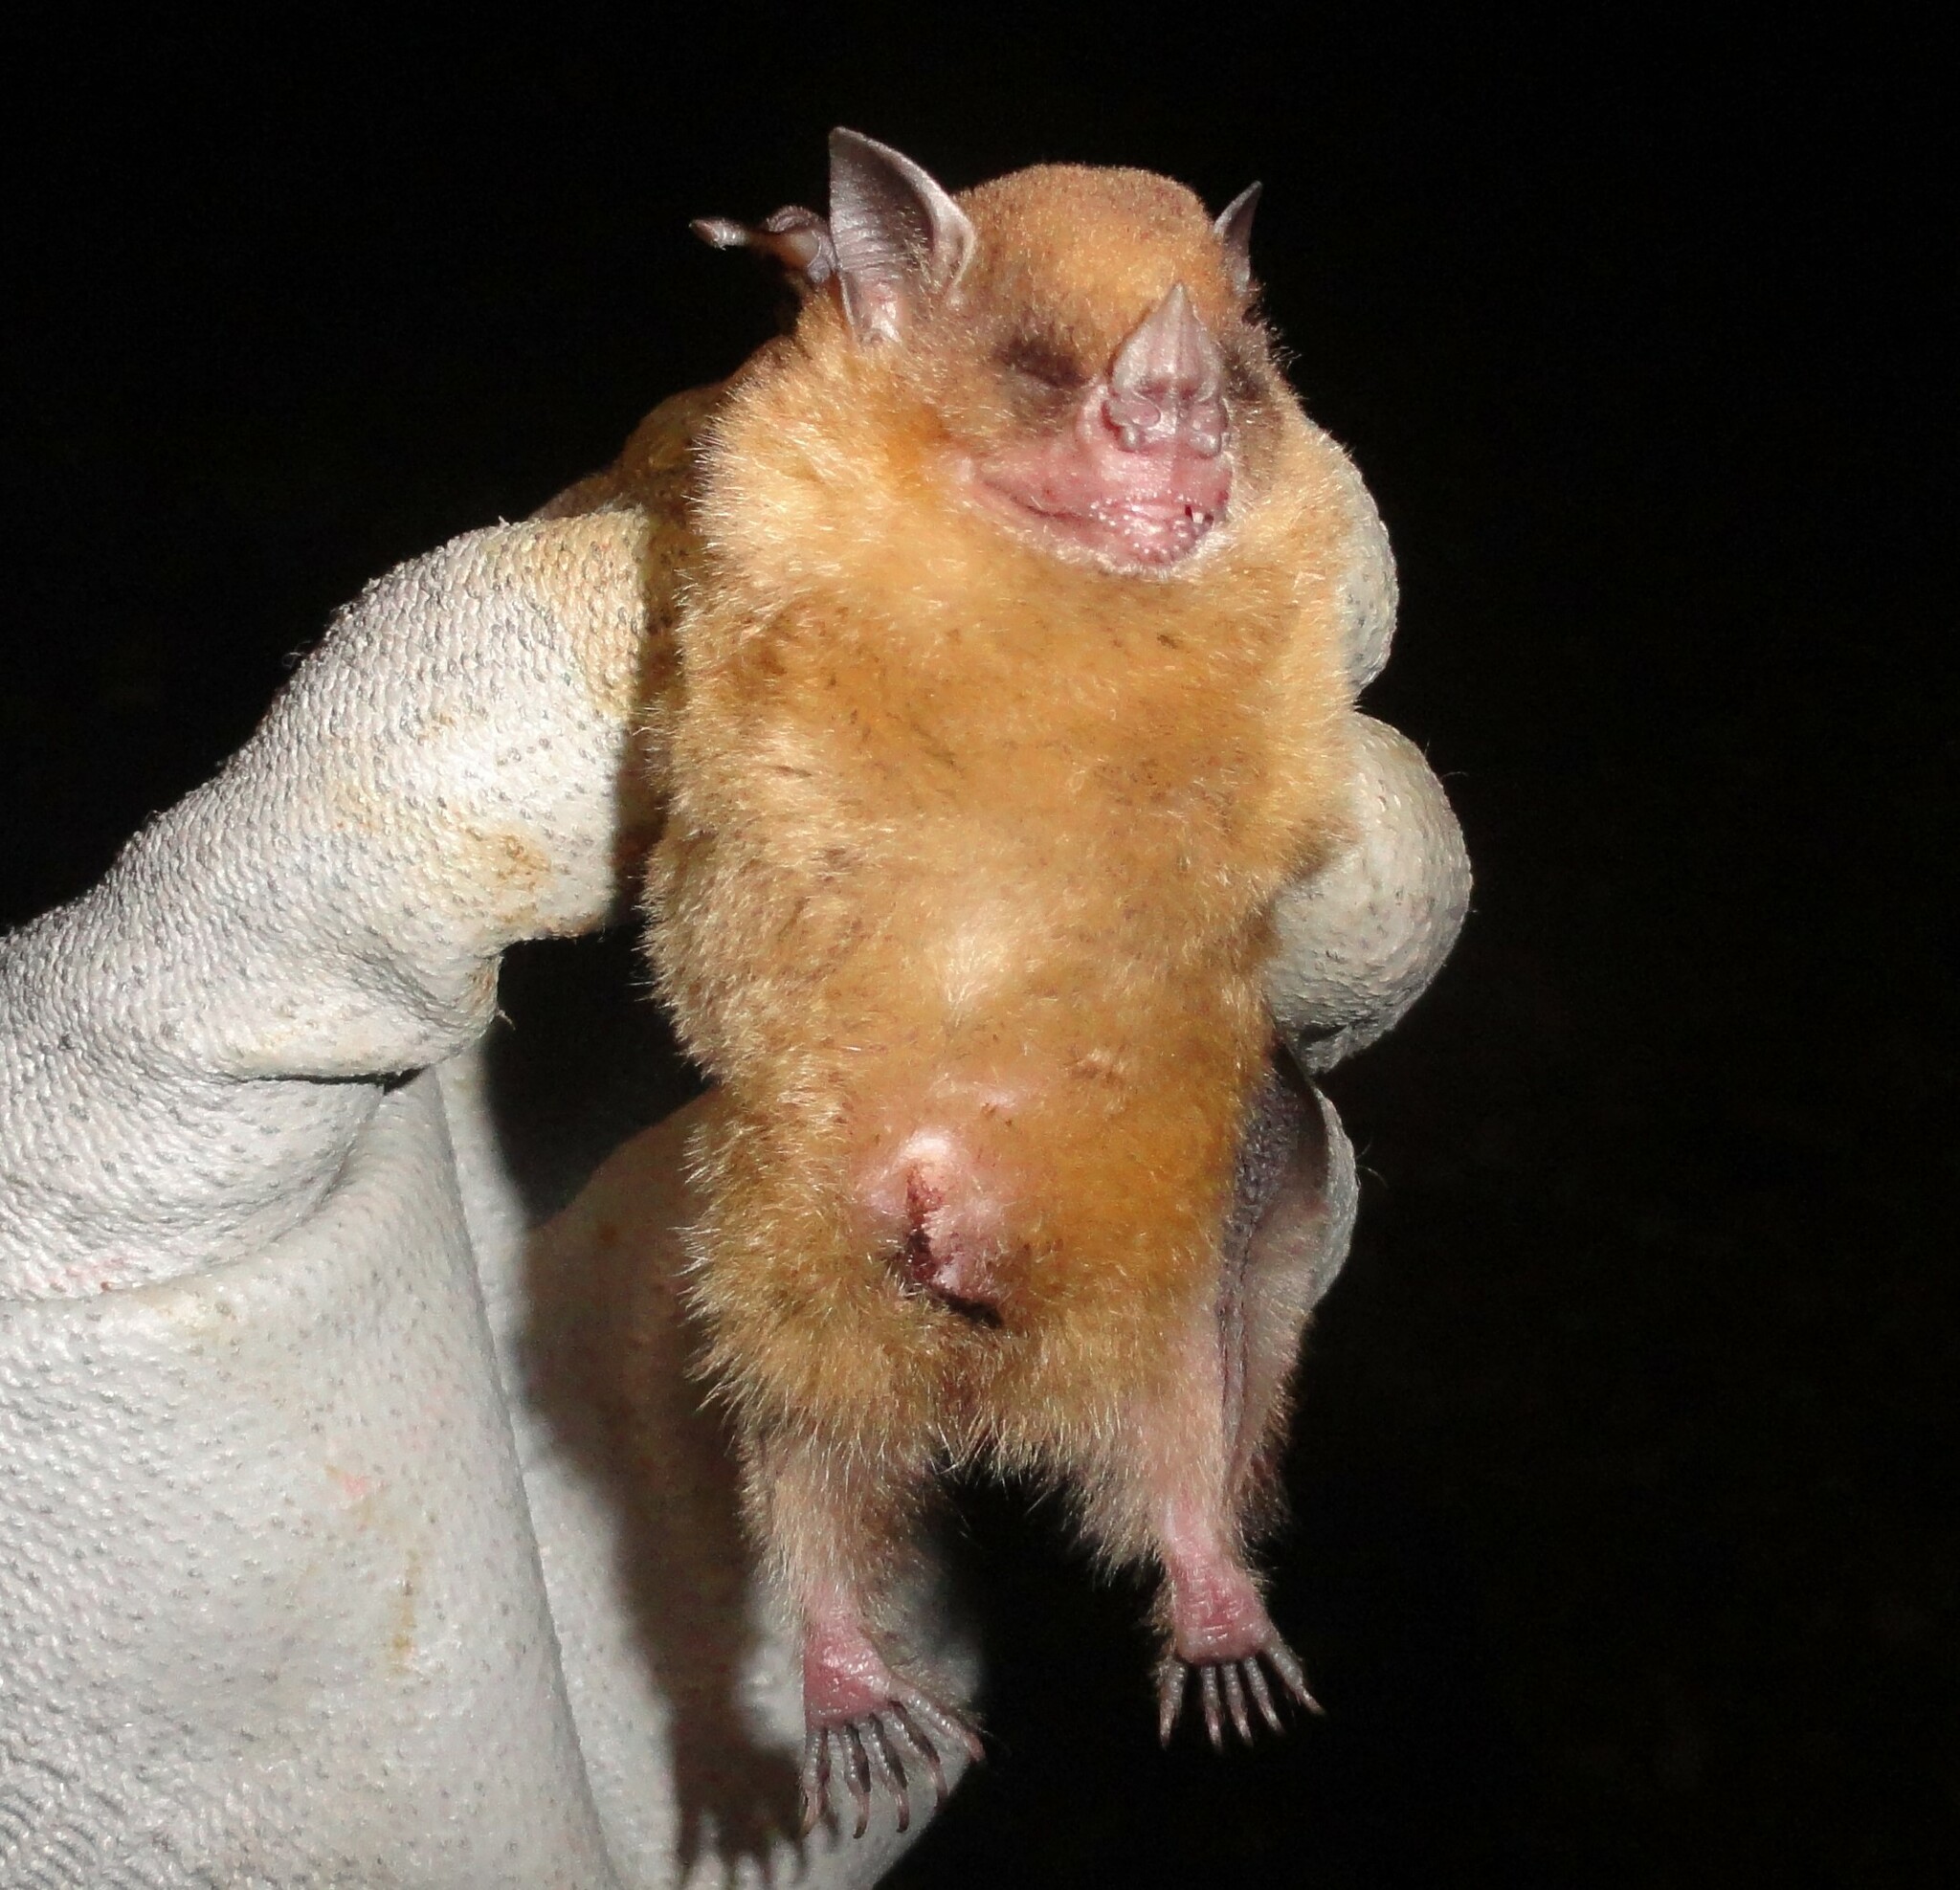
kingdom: Animalia
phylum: Chordata
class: Mammalia
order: Chiroptera
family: Phyllostomidae
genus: Sturnira
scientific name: Sturnira lilium
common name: Little yellow-shouldered bat
